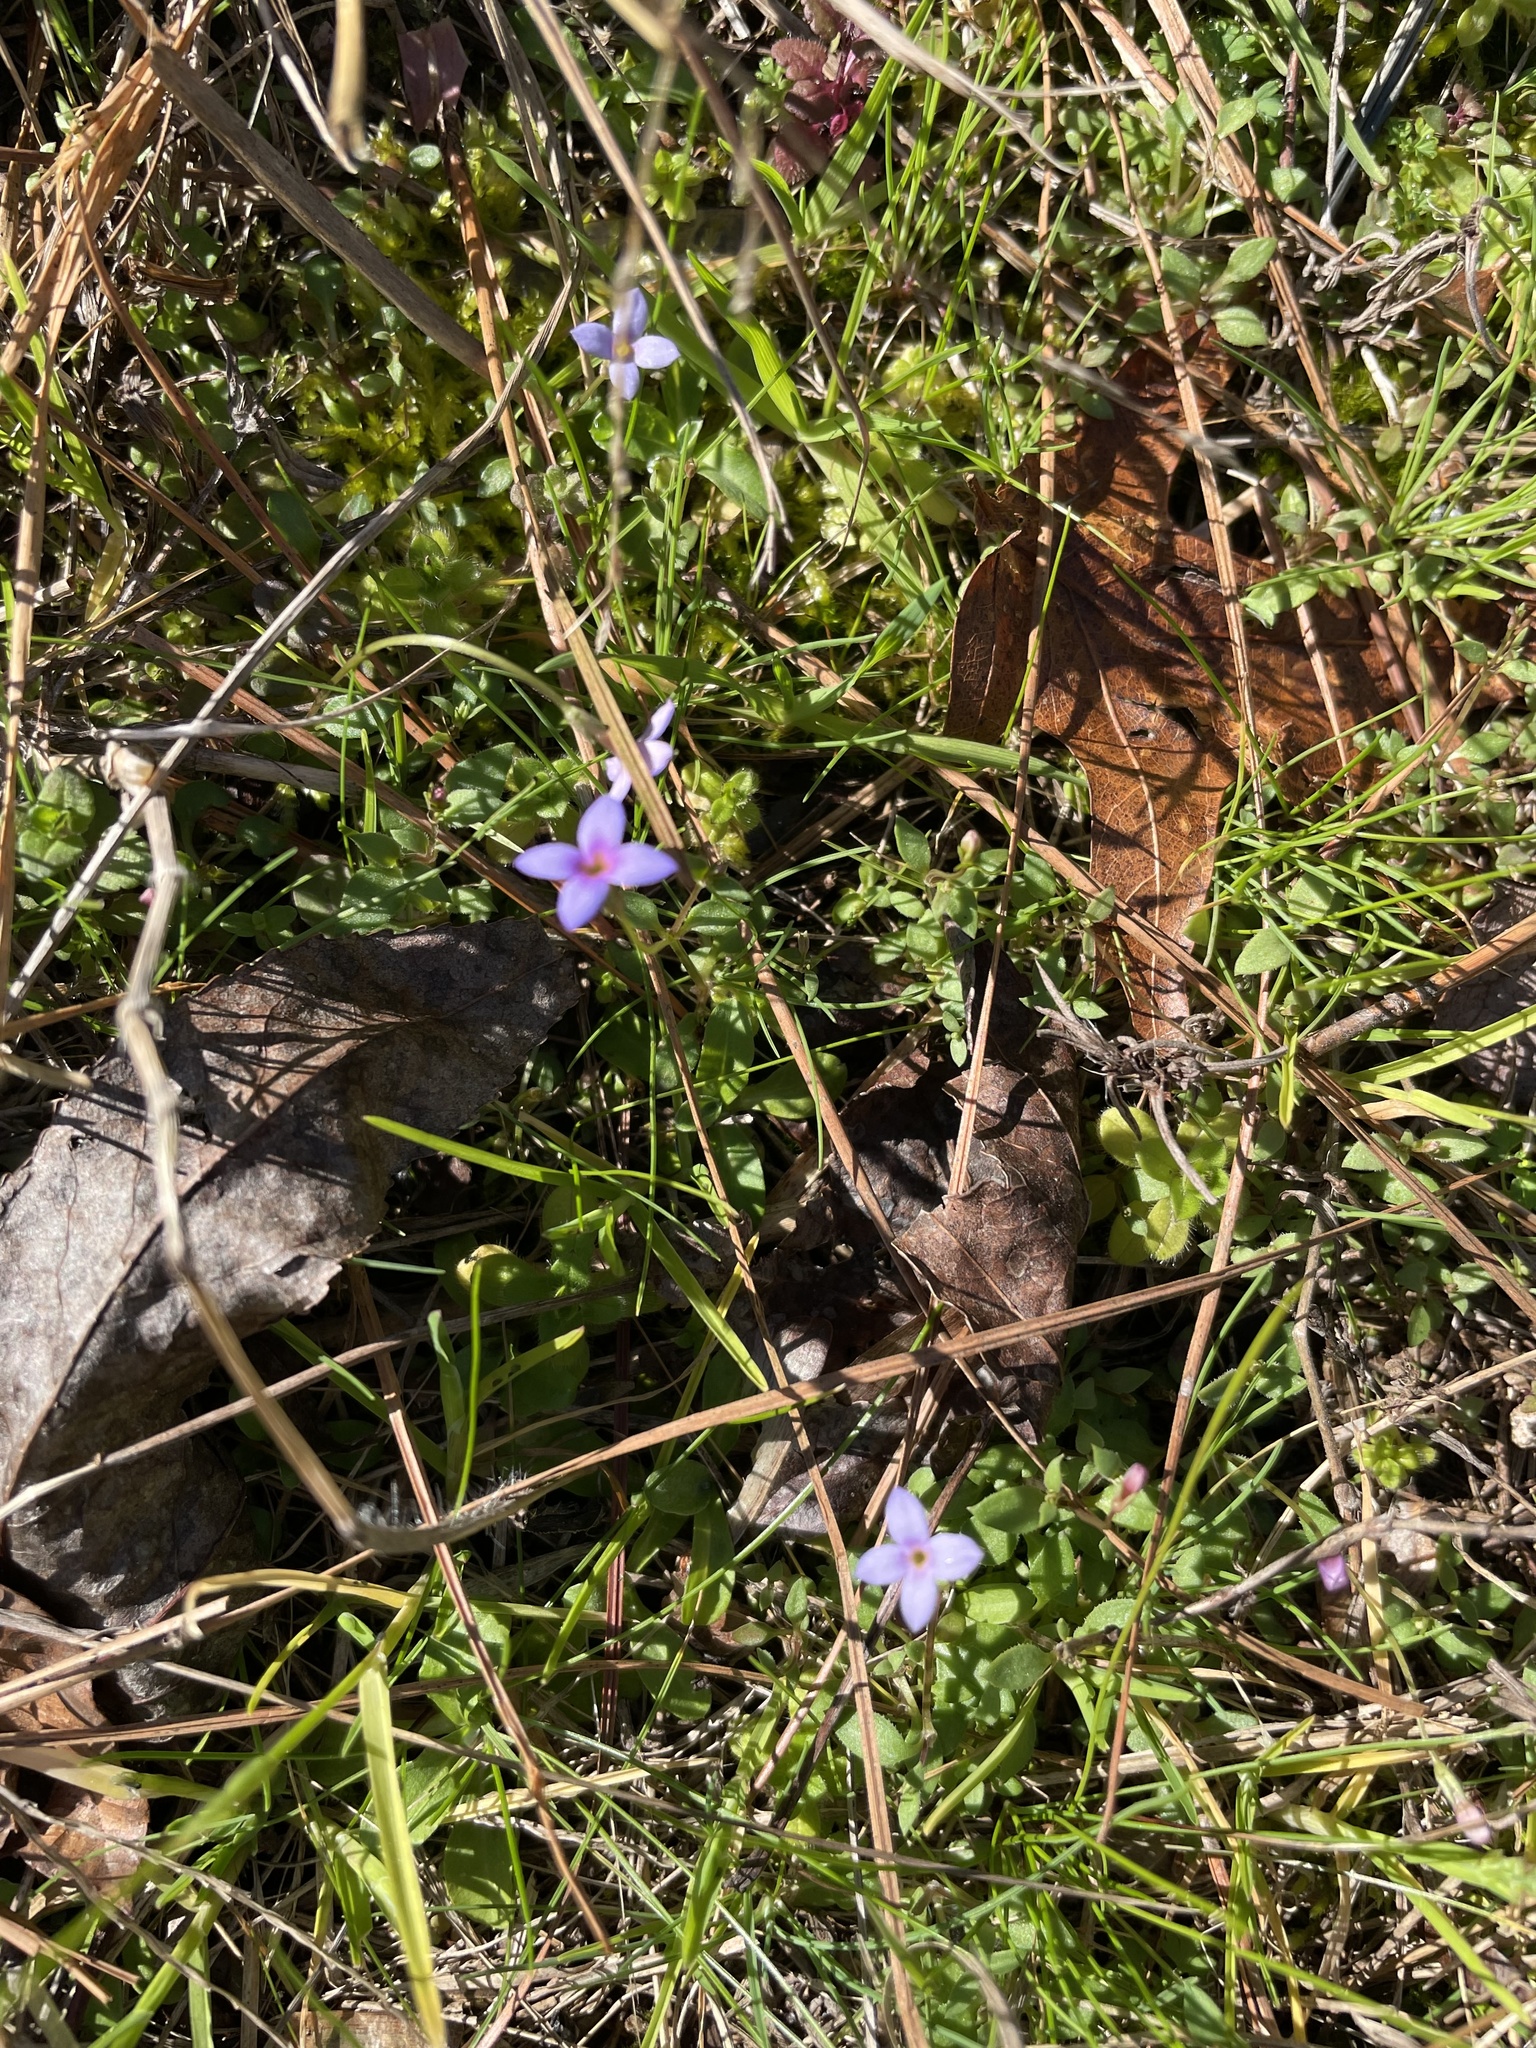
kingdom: Plantae
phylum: Tracheophyta
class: Magnoliopsida
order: Gentianales
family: Rubiaceae
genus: Houstonia
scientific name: Houstonia pusilla
